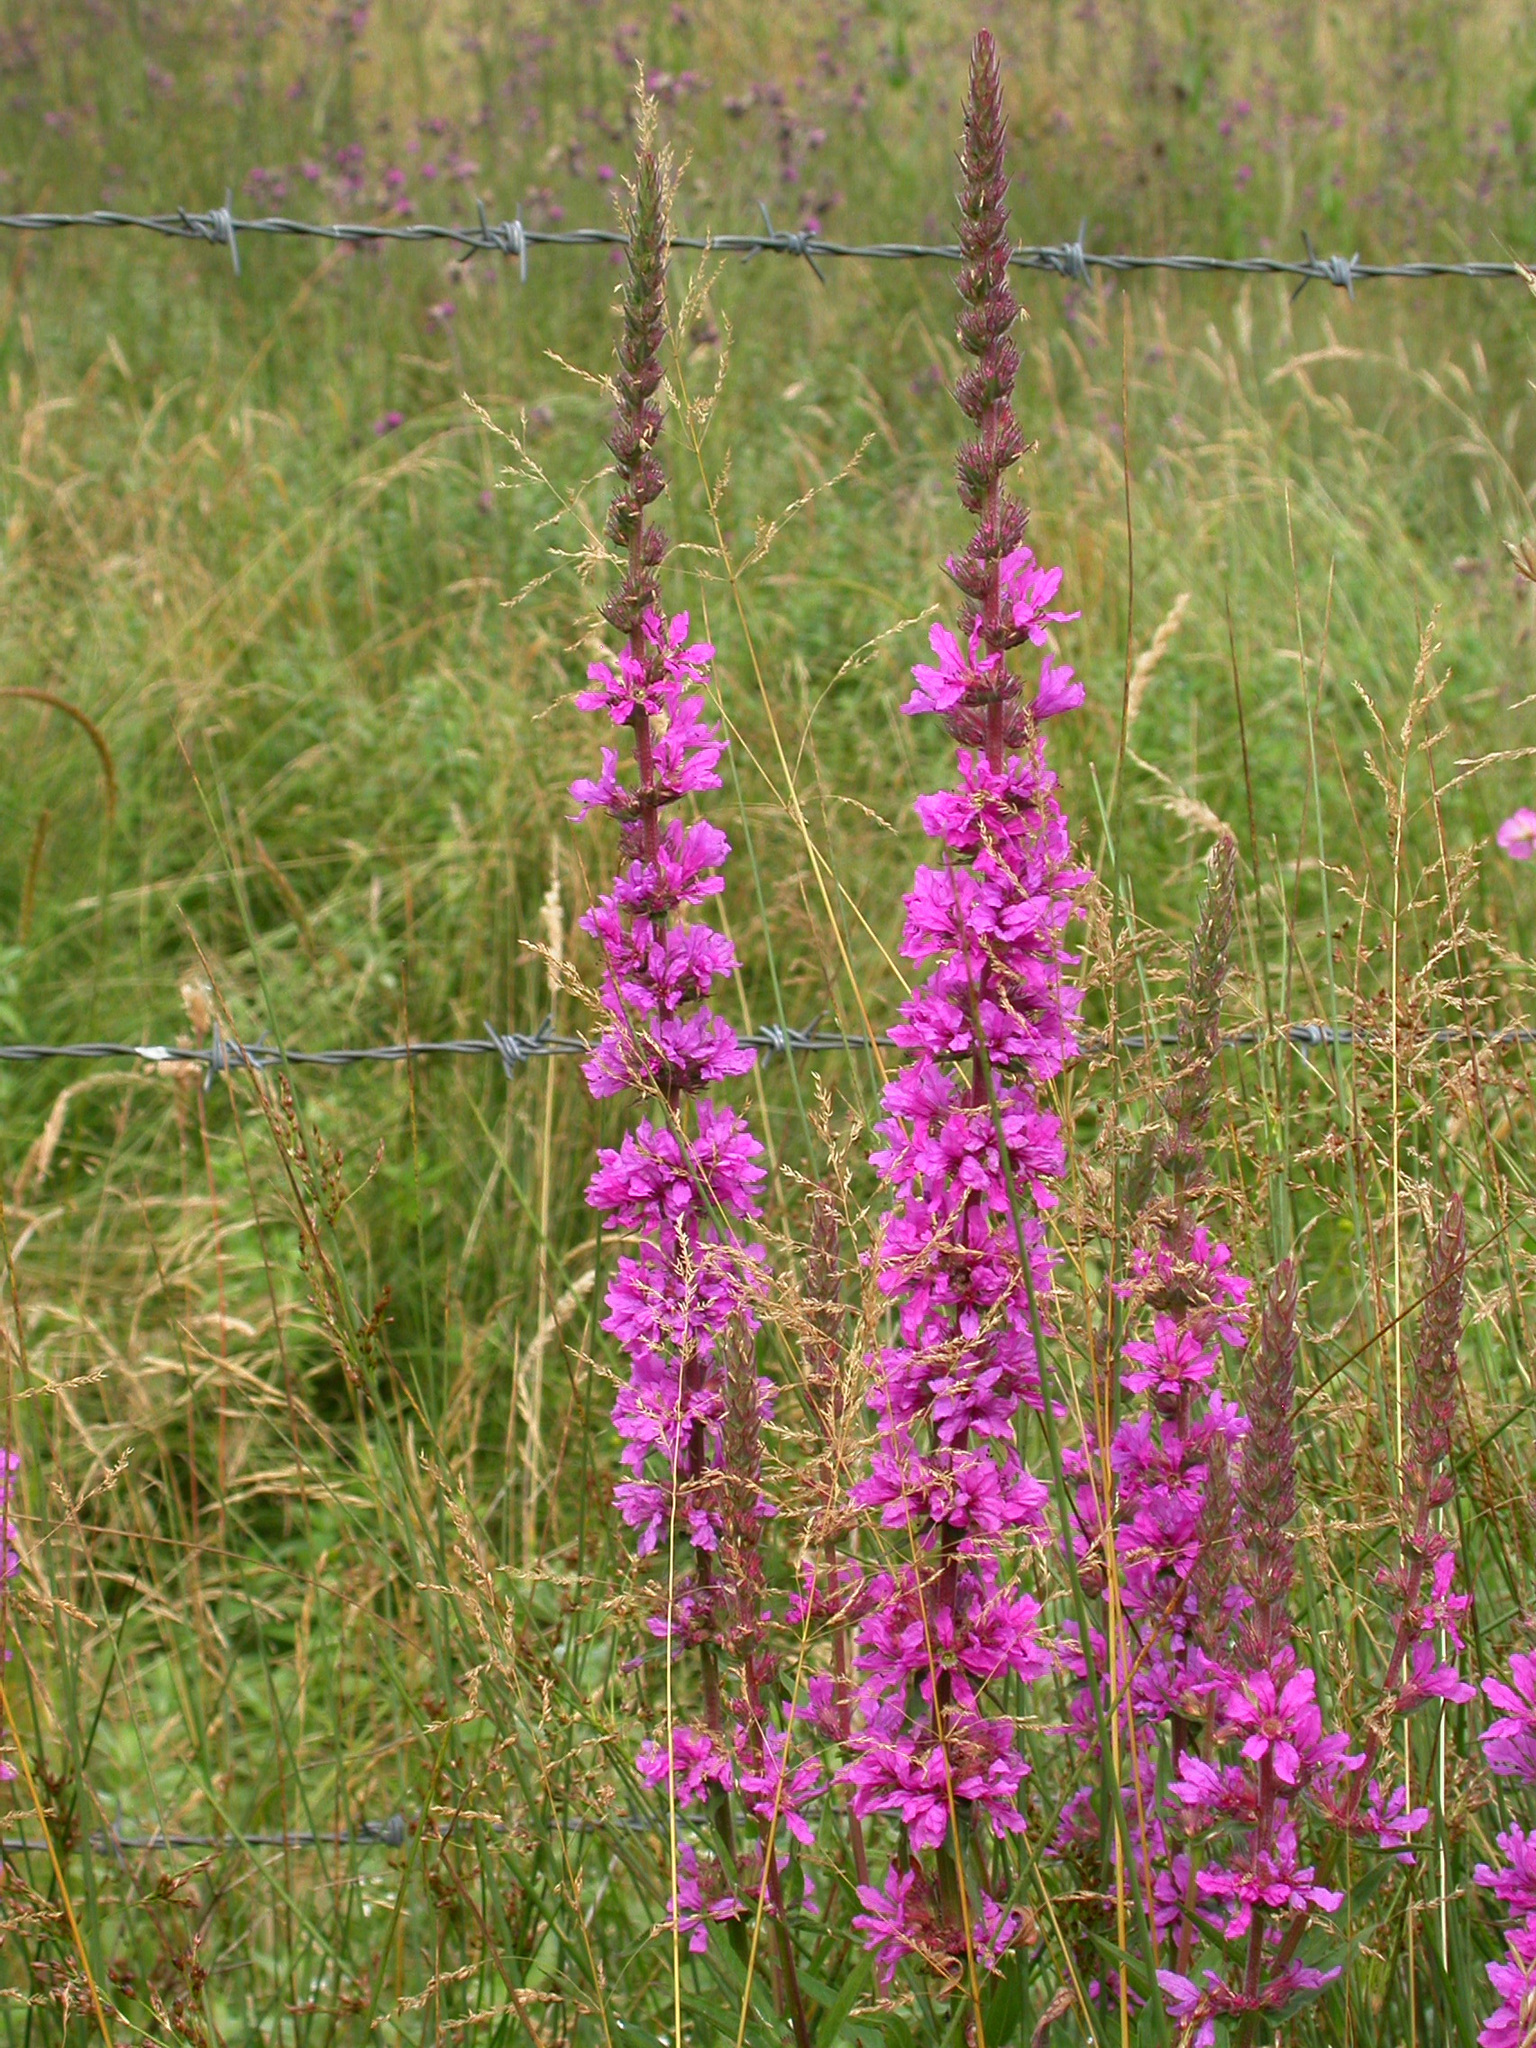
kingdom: Plantae
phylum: Tracheophyta
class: Magnoliopsida
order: Myrtales
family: Lythraceae
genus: Lythrum
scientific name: Lythrum salicaria
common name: Purple loosestrife
